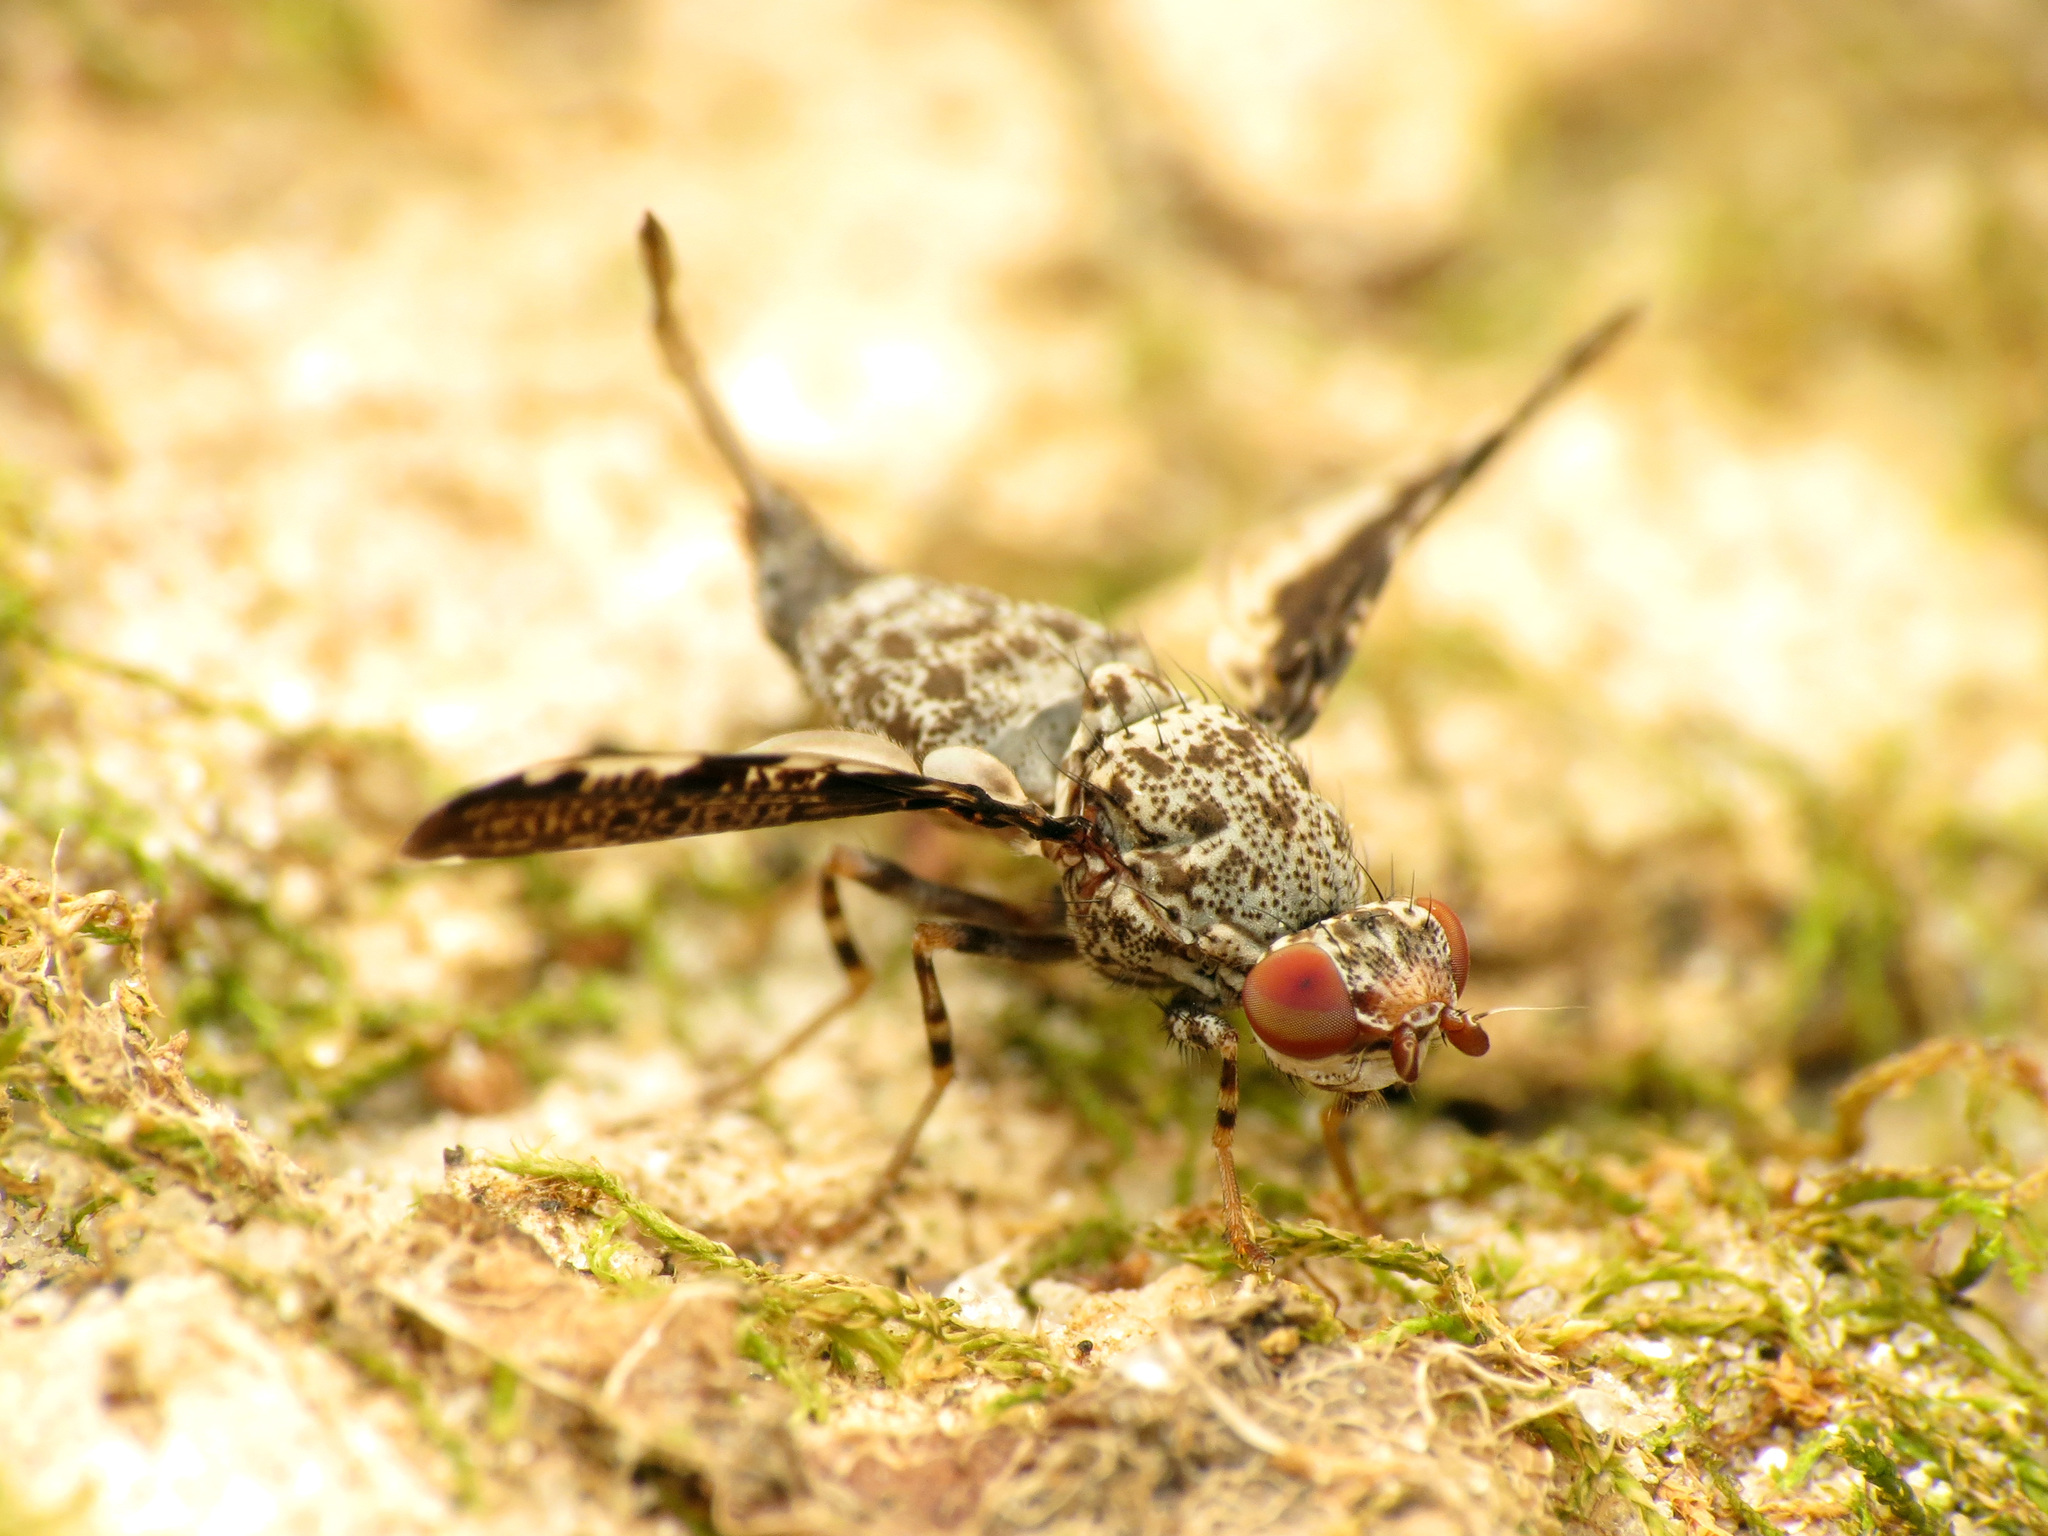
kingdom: Animalia
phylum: Arthropoda
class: Insecta
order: Diptera
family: Ulidiidae
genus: Callopistromyia
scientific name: Callopistromyia strigula
